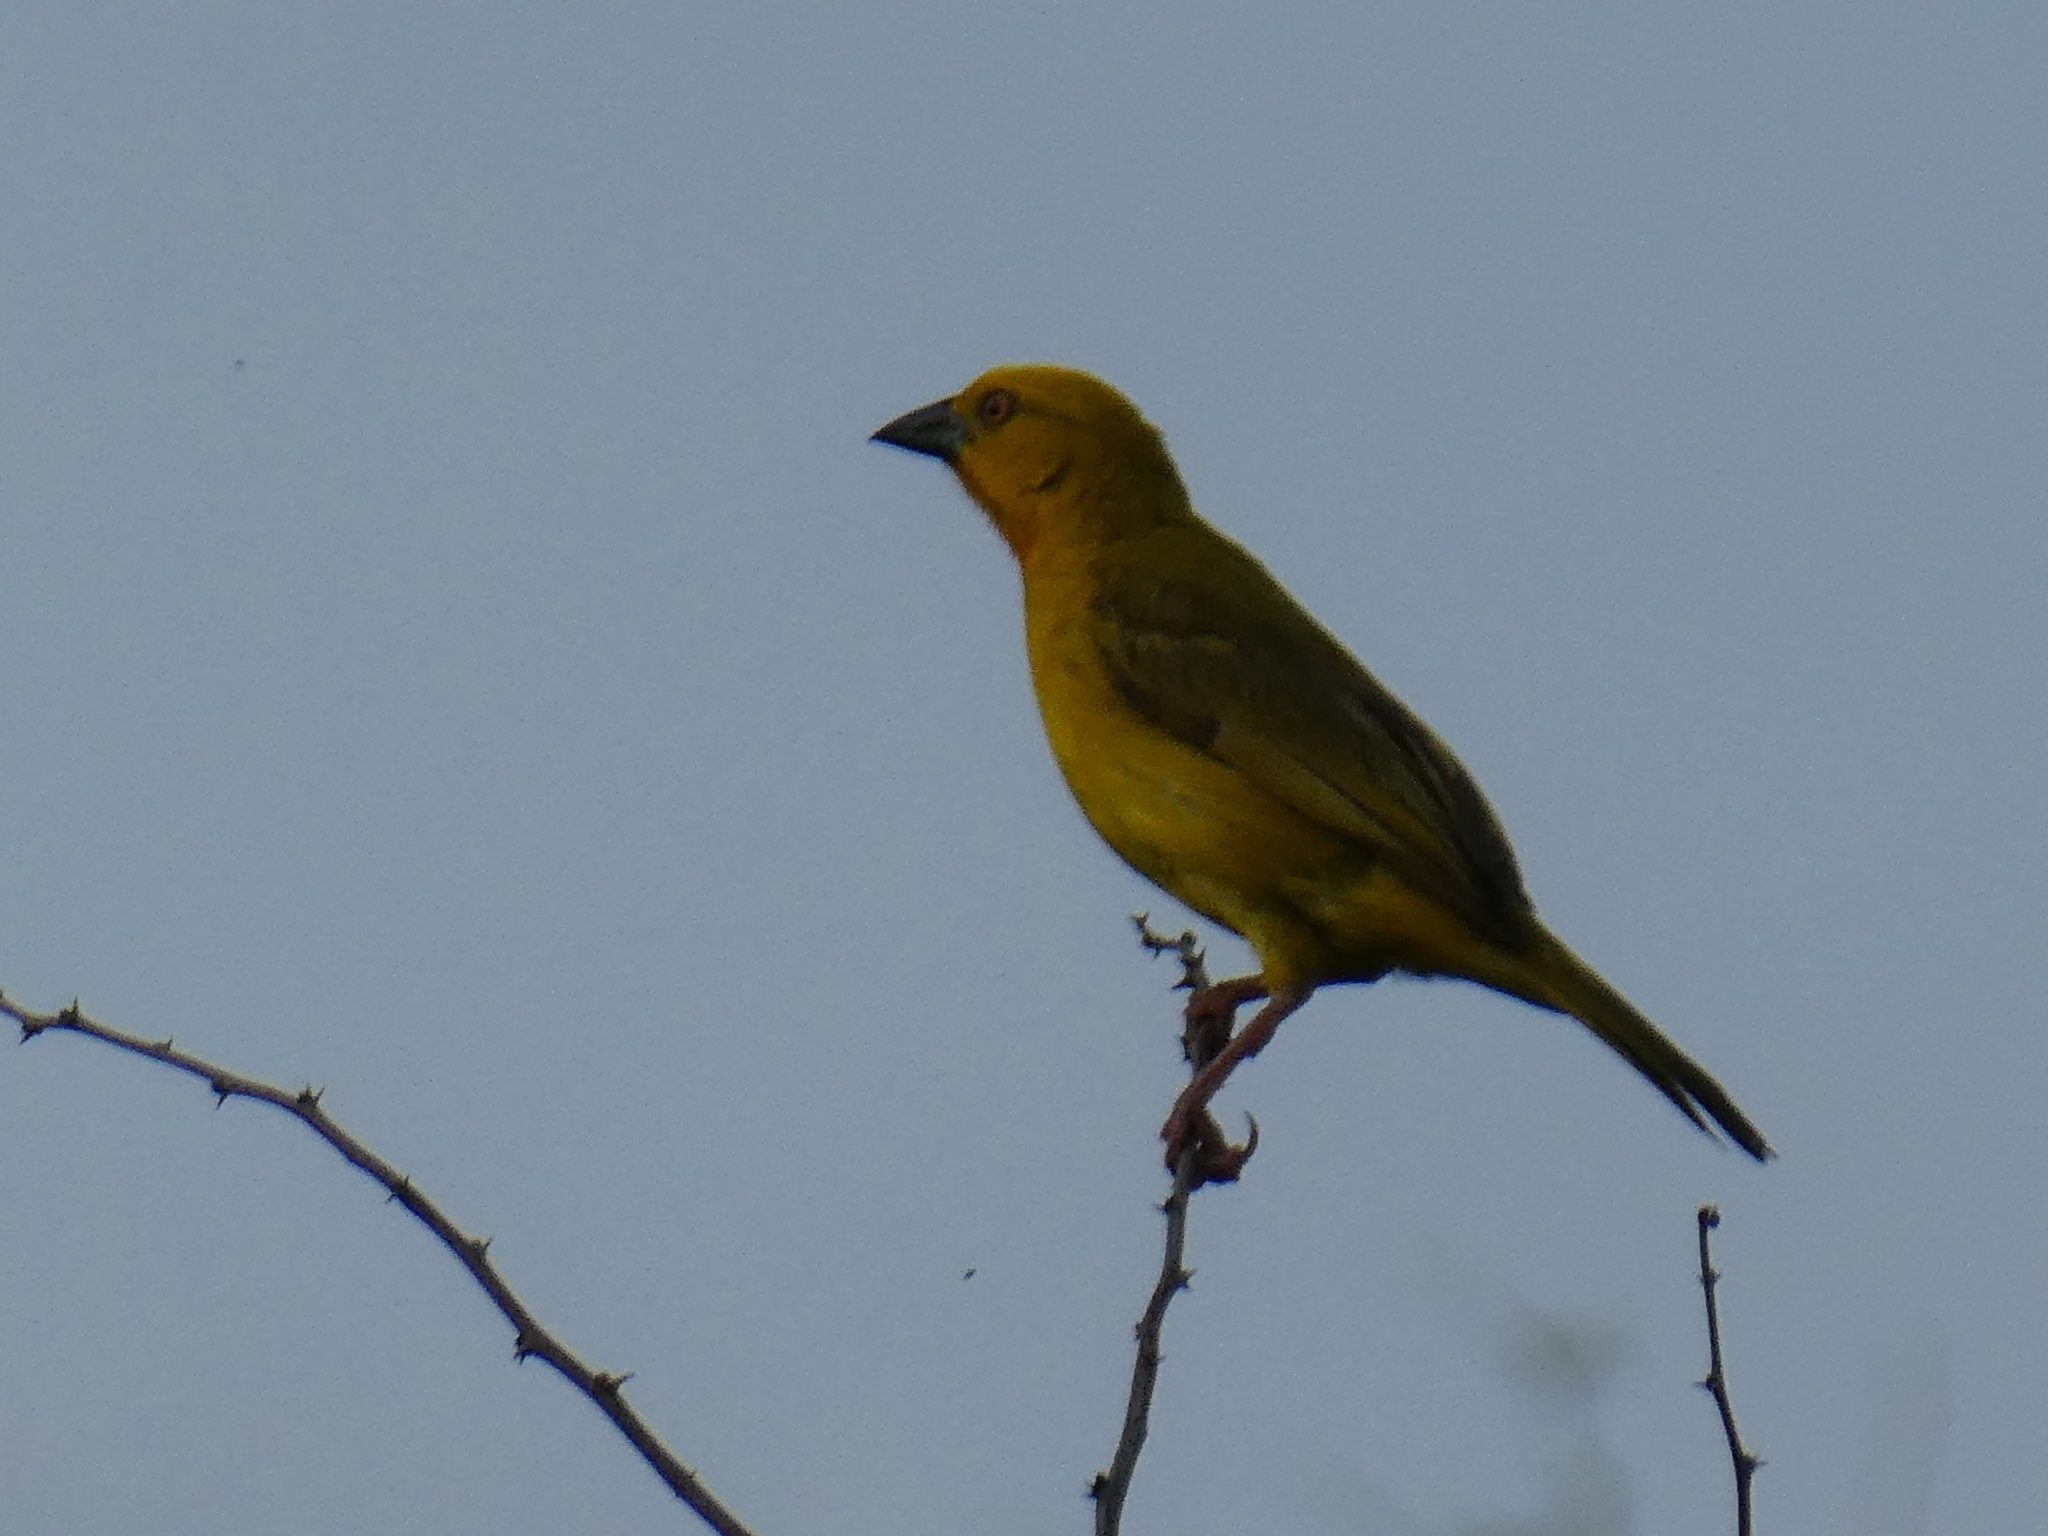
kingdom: Animalia
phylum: Chordata
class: Aves
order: Passeriformes
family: Ploceidae
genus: Ploceus
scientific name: Ploceus xanthops
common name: Holub's golden weaver
